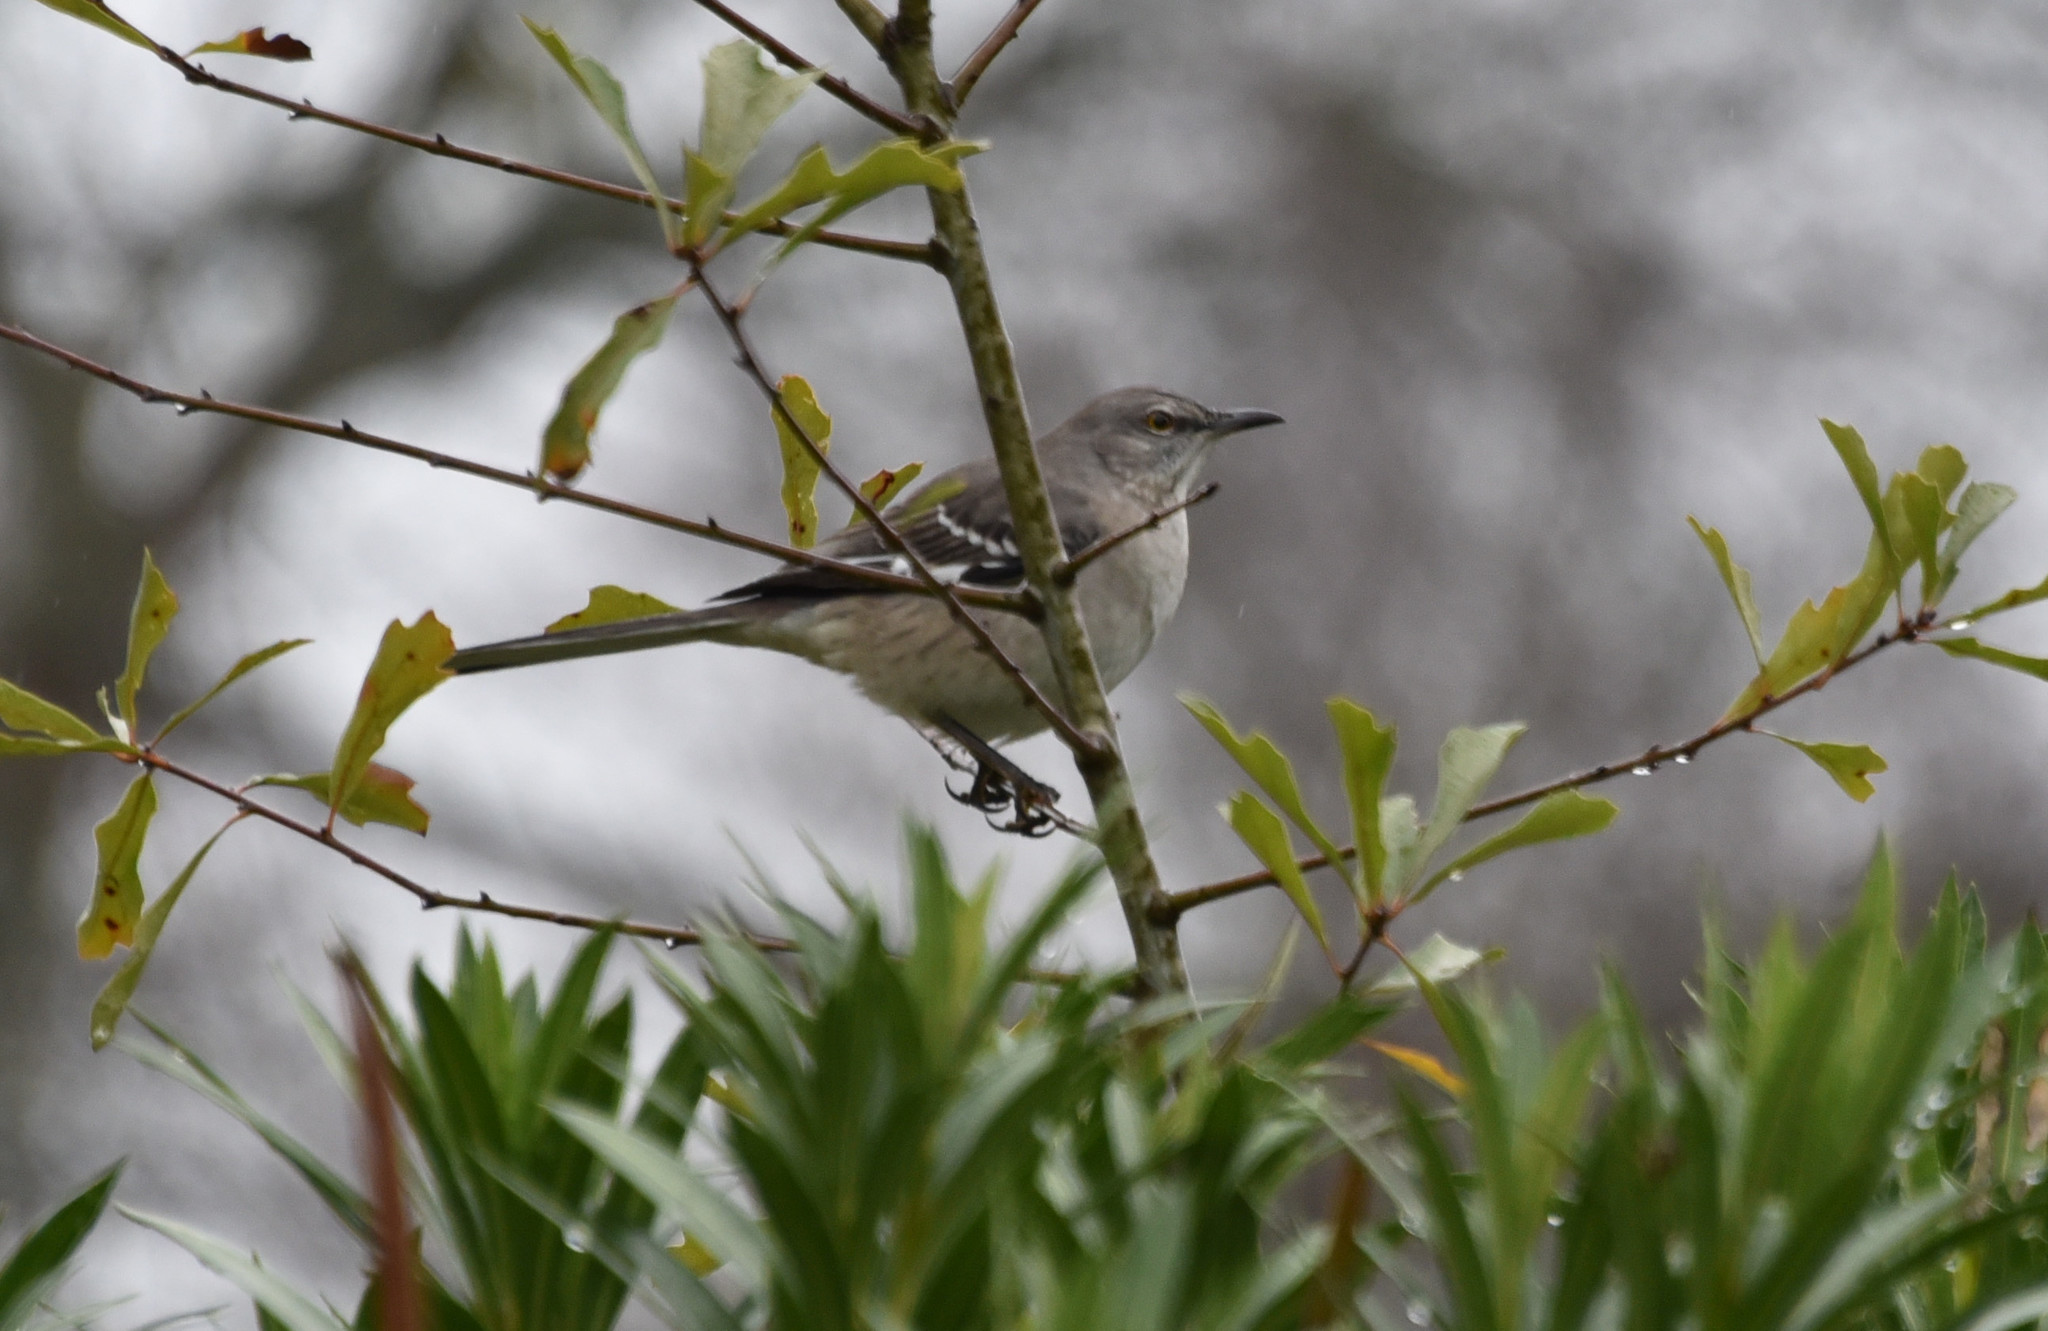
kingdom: Animalia
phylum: Chordata
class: Aves
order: Passeriformes
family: Mimidae
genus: Mimus
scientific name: Mimus polyglottos
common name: Northern mockingbird
